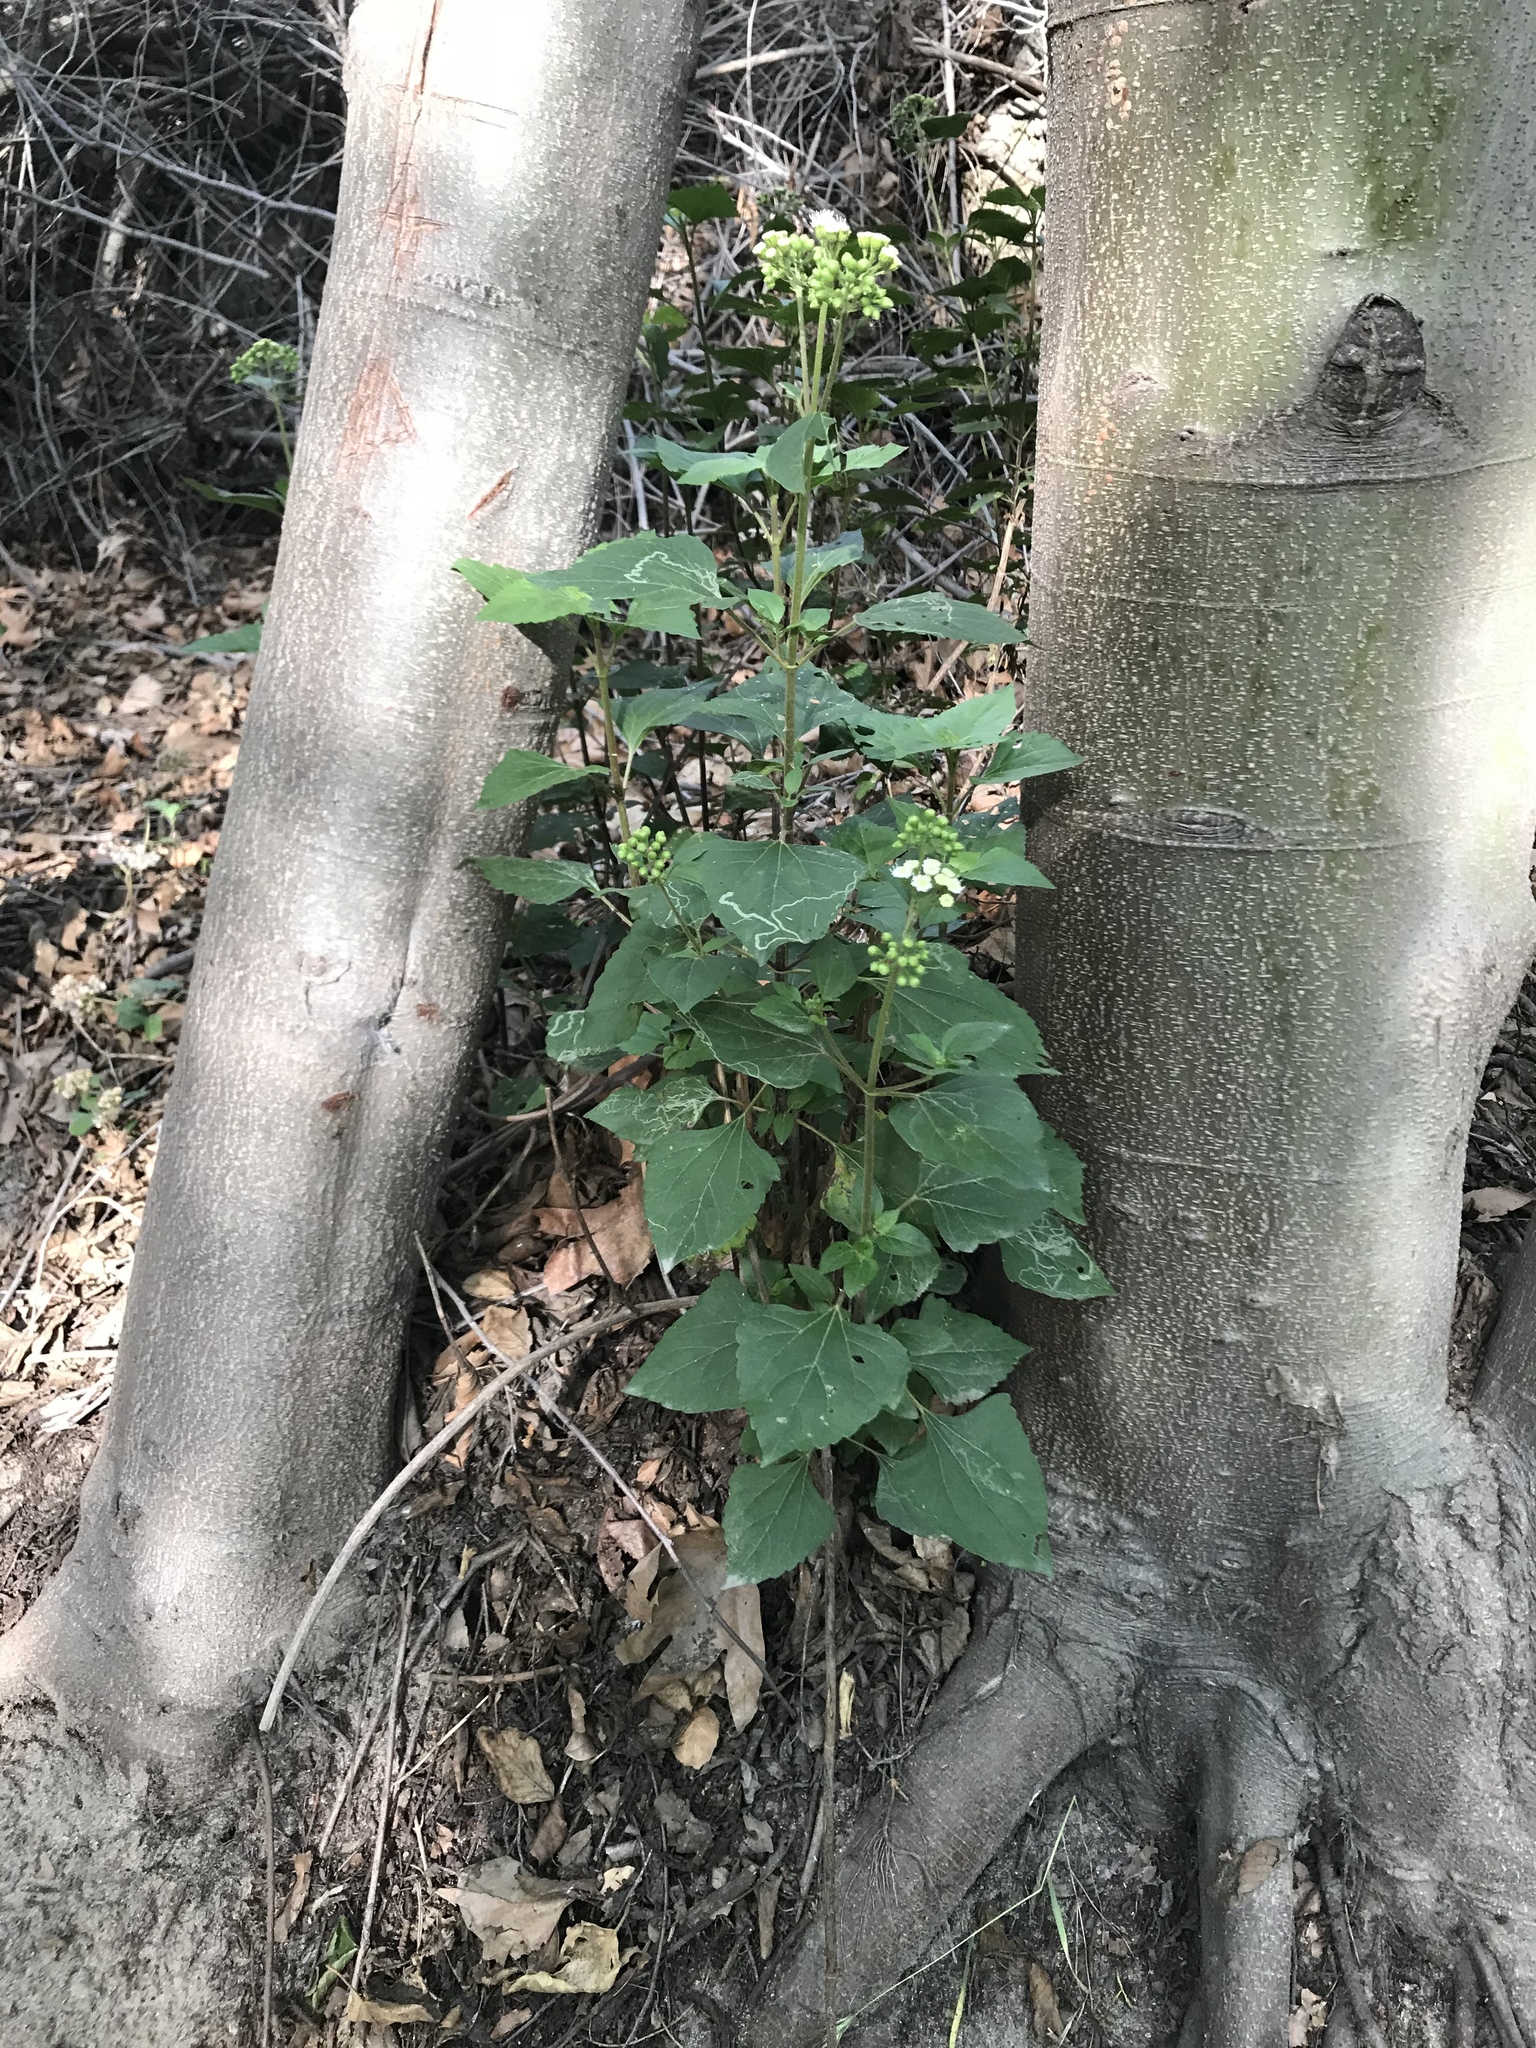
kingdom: Plantae
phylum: Tracheophyta
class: Magnoliopsida
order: Asterales
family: Asteraceae
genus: Ageratina
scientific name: Ageratina adenophora
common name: Sticky snakeroot
